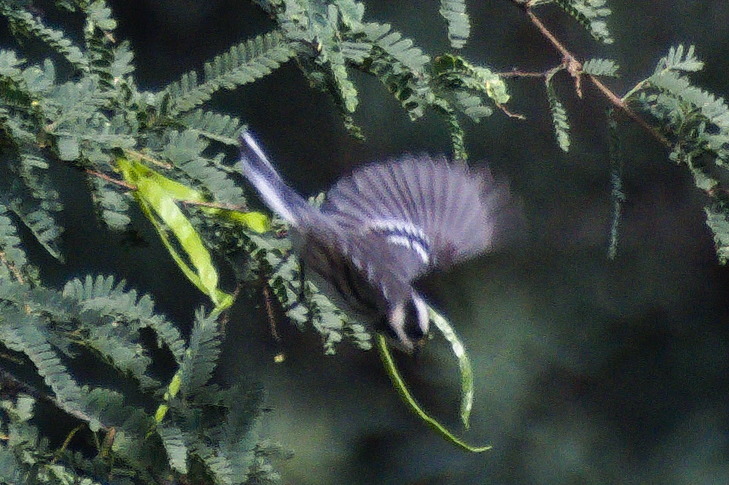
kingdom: Animalia
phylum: Chordata
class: Aves
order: Passeriformes
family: Parulidae
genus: Setophaga
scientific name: Setophaga nigrescens
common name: Black-throated gray warbler
